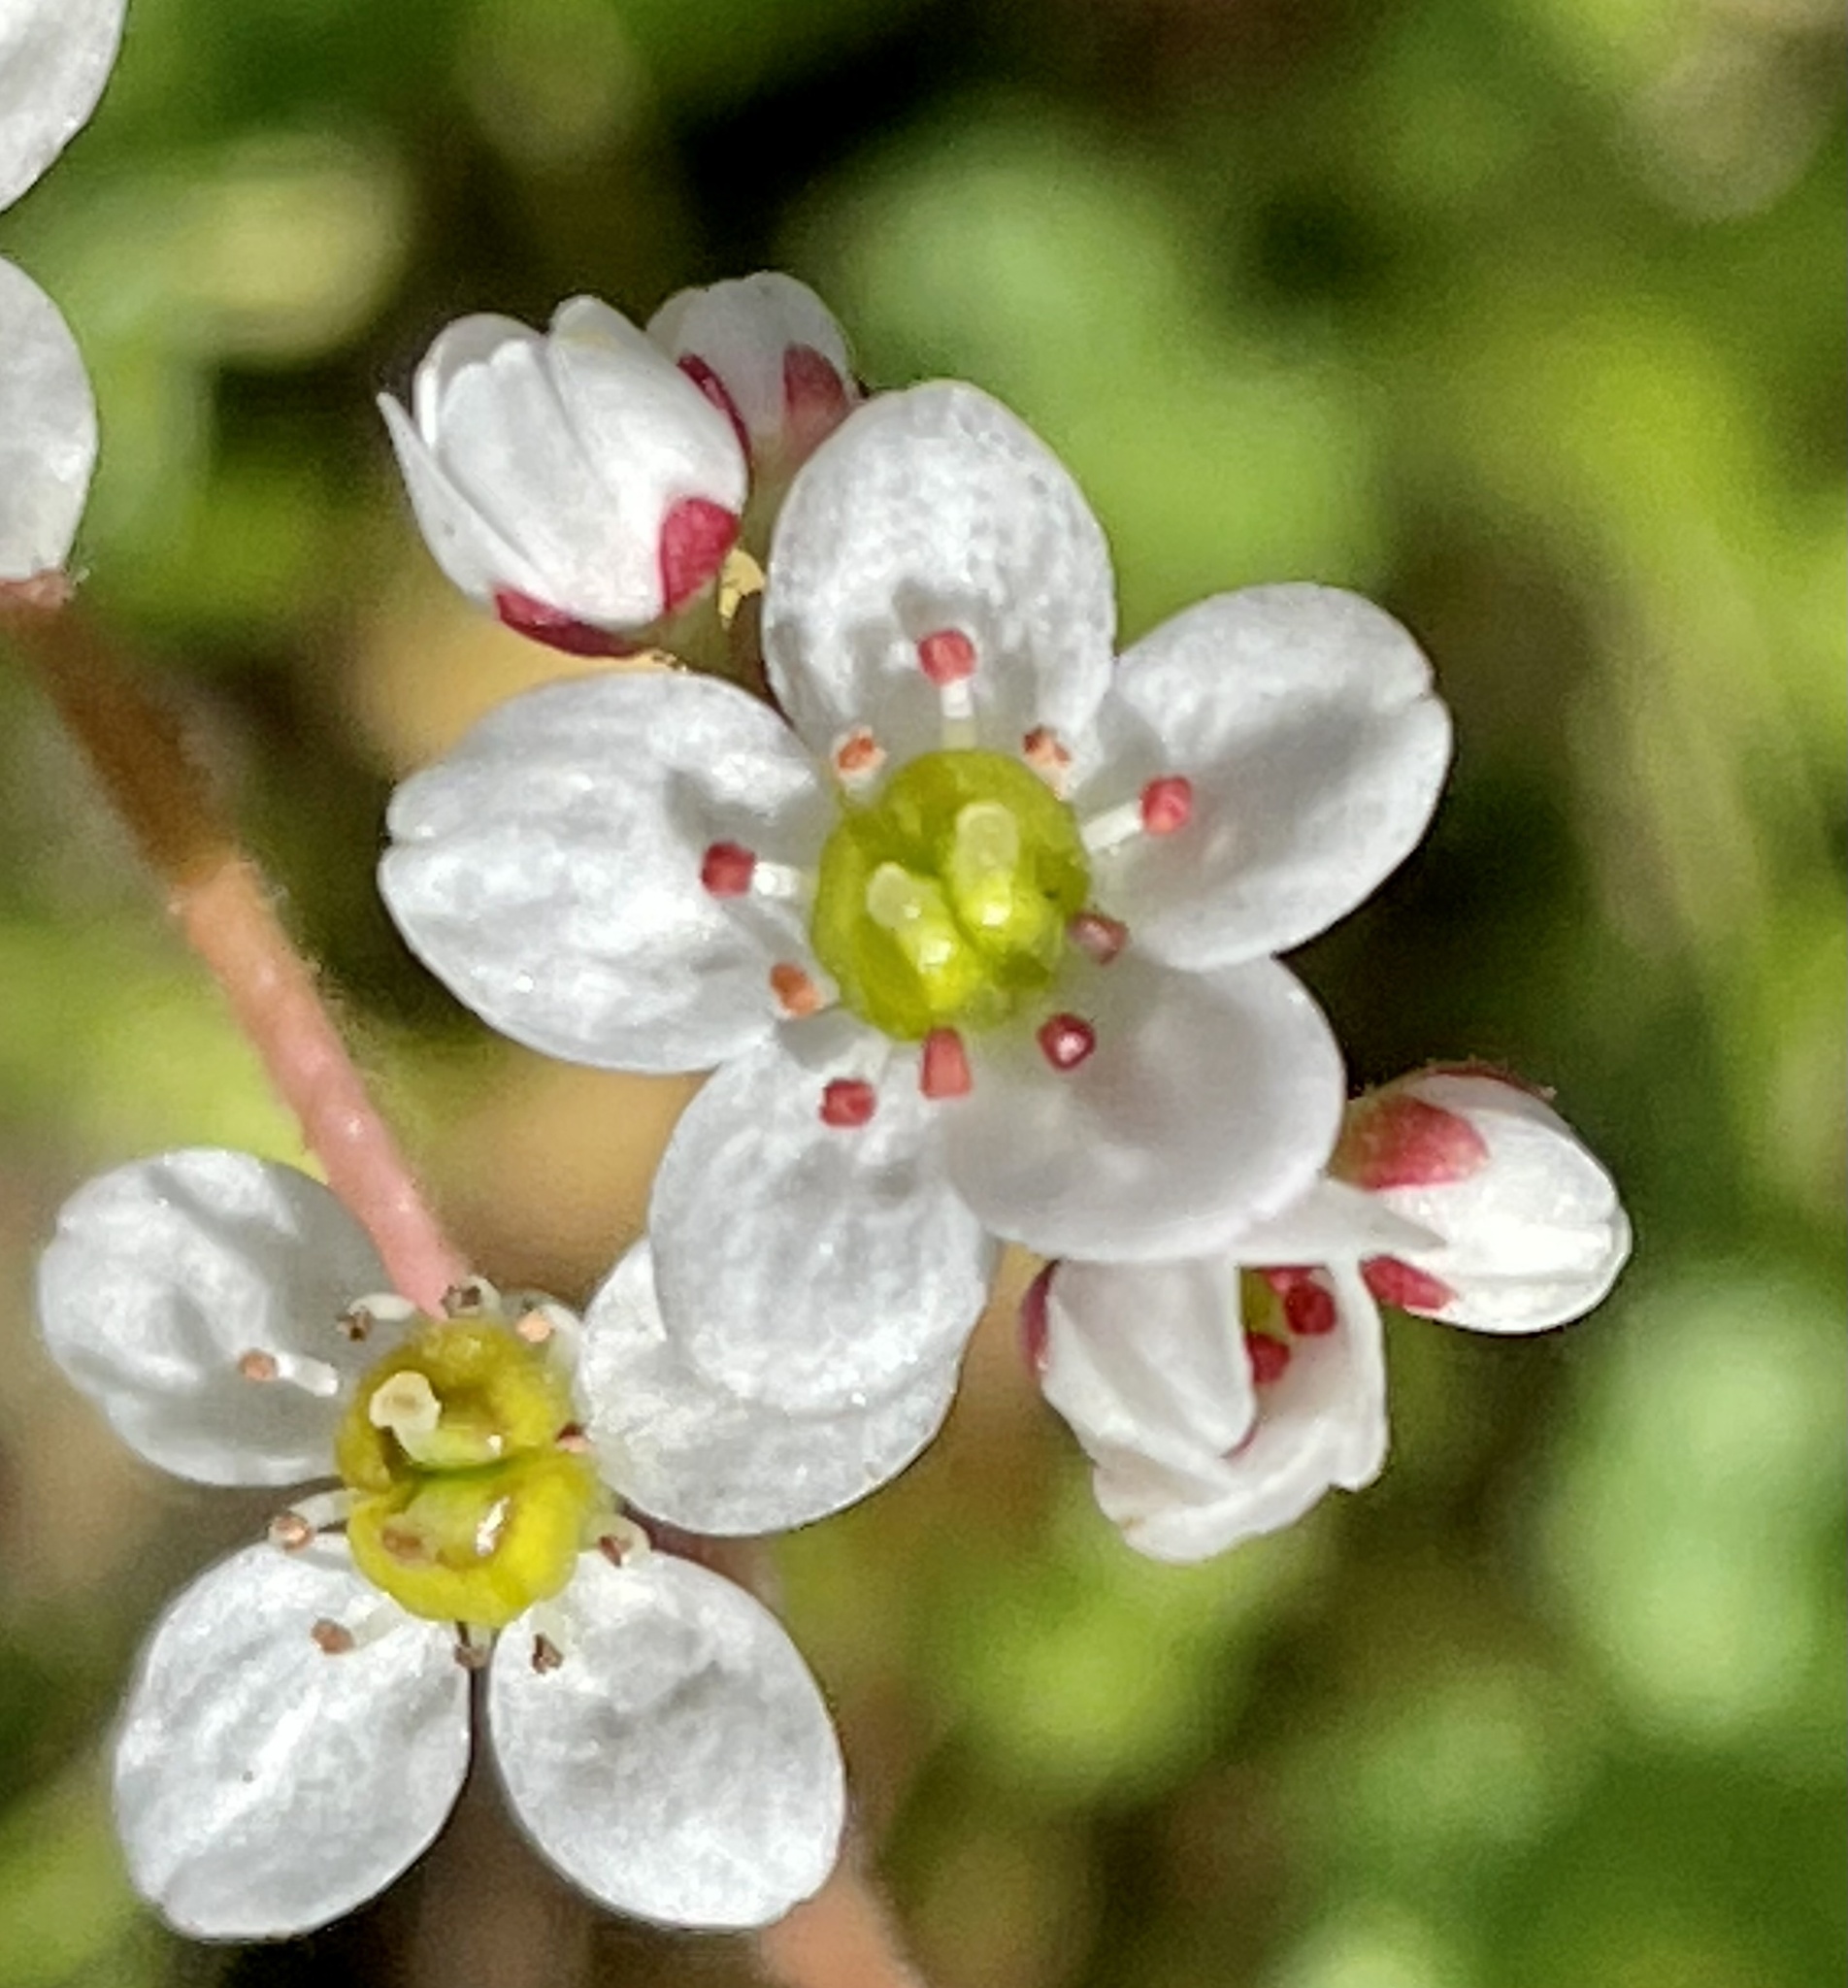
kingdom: Plantae
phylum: Tracheophyta
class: Magnoliopsida
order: Saxifragales
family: Saxifragaceae
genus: Micranthes
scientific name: Micranthes californica
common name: California saxifrage
